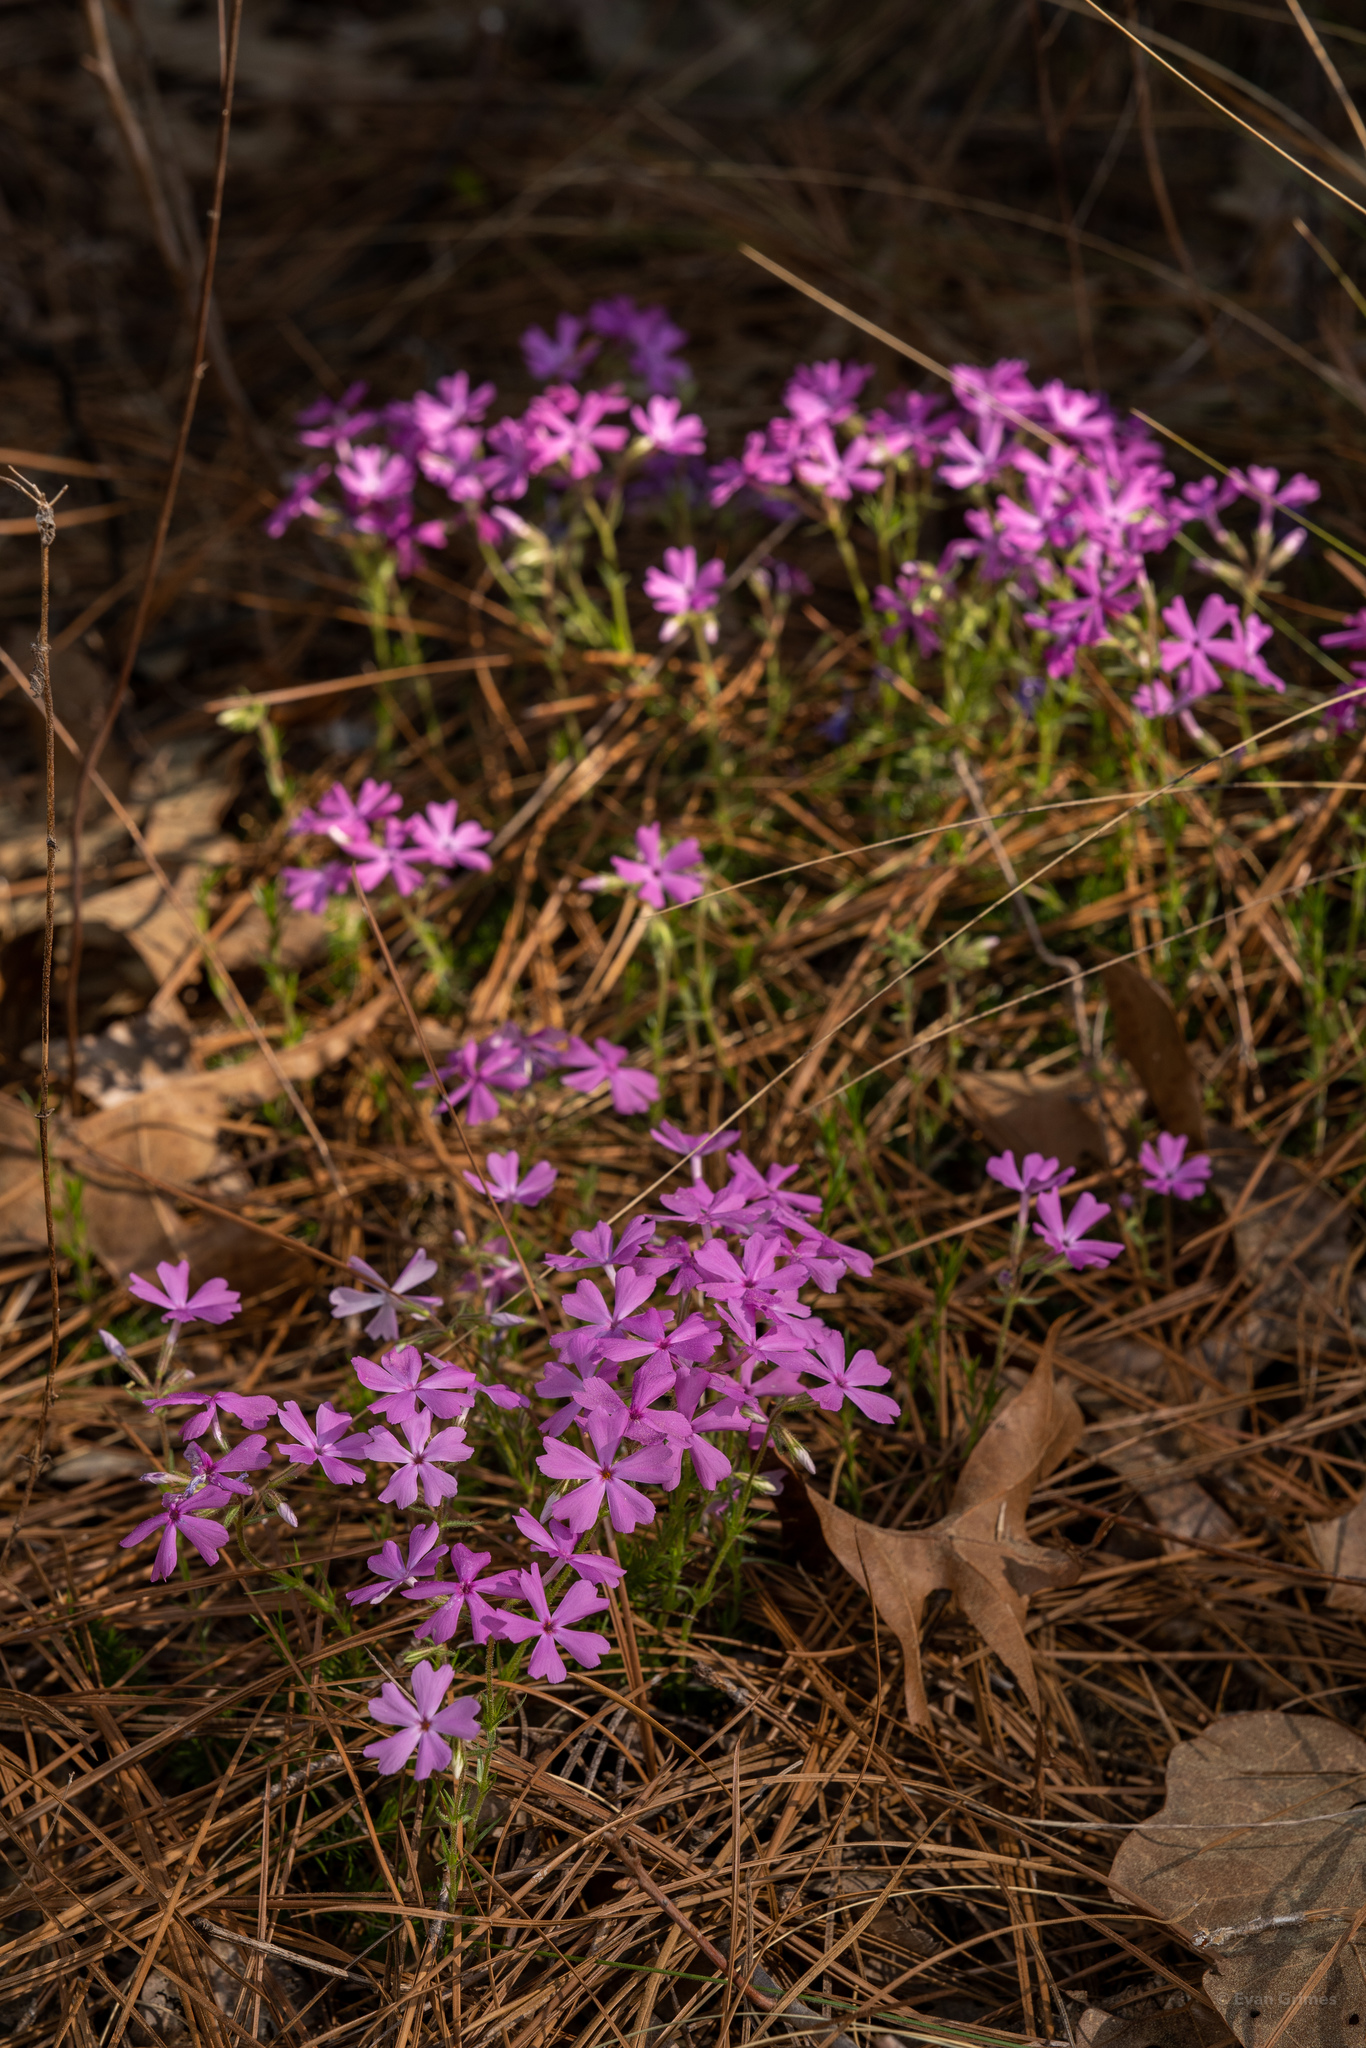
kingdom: Plantae
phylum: Tracheophyta
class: Magnoliopsida
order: Ericales
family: Polemoniaceae
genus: Phlox
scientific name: Phlox nivalis
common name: Trailing phlox
